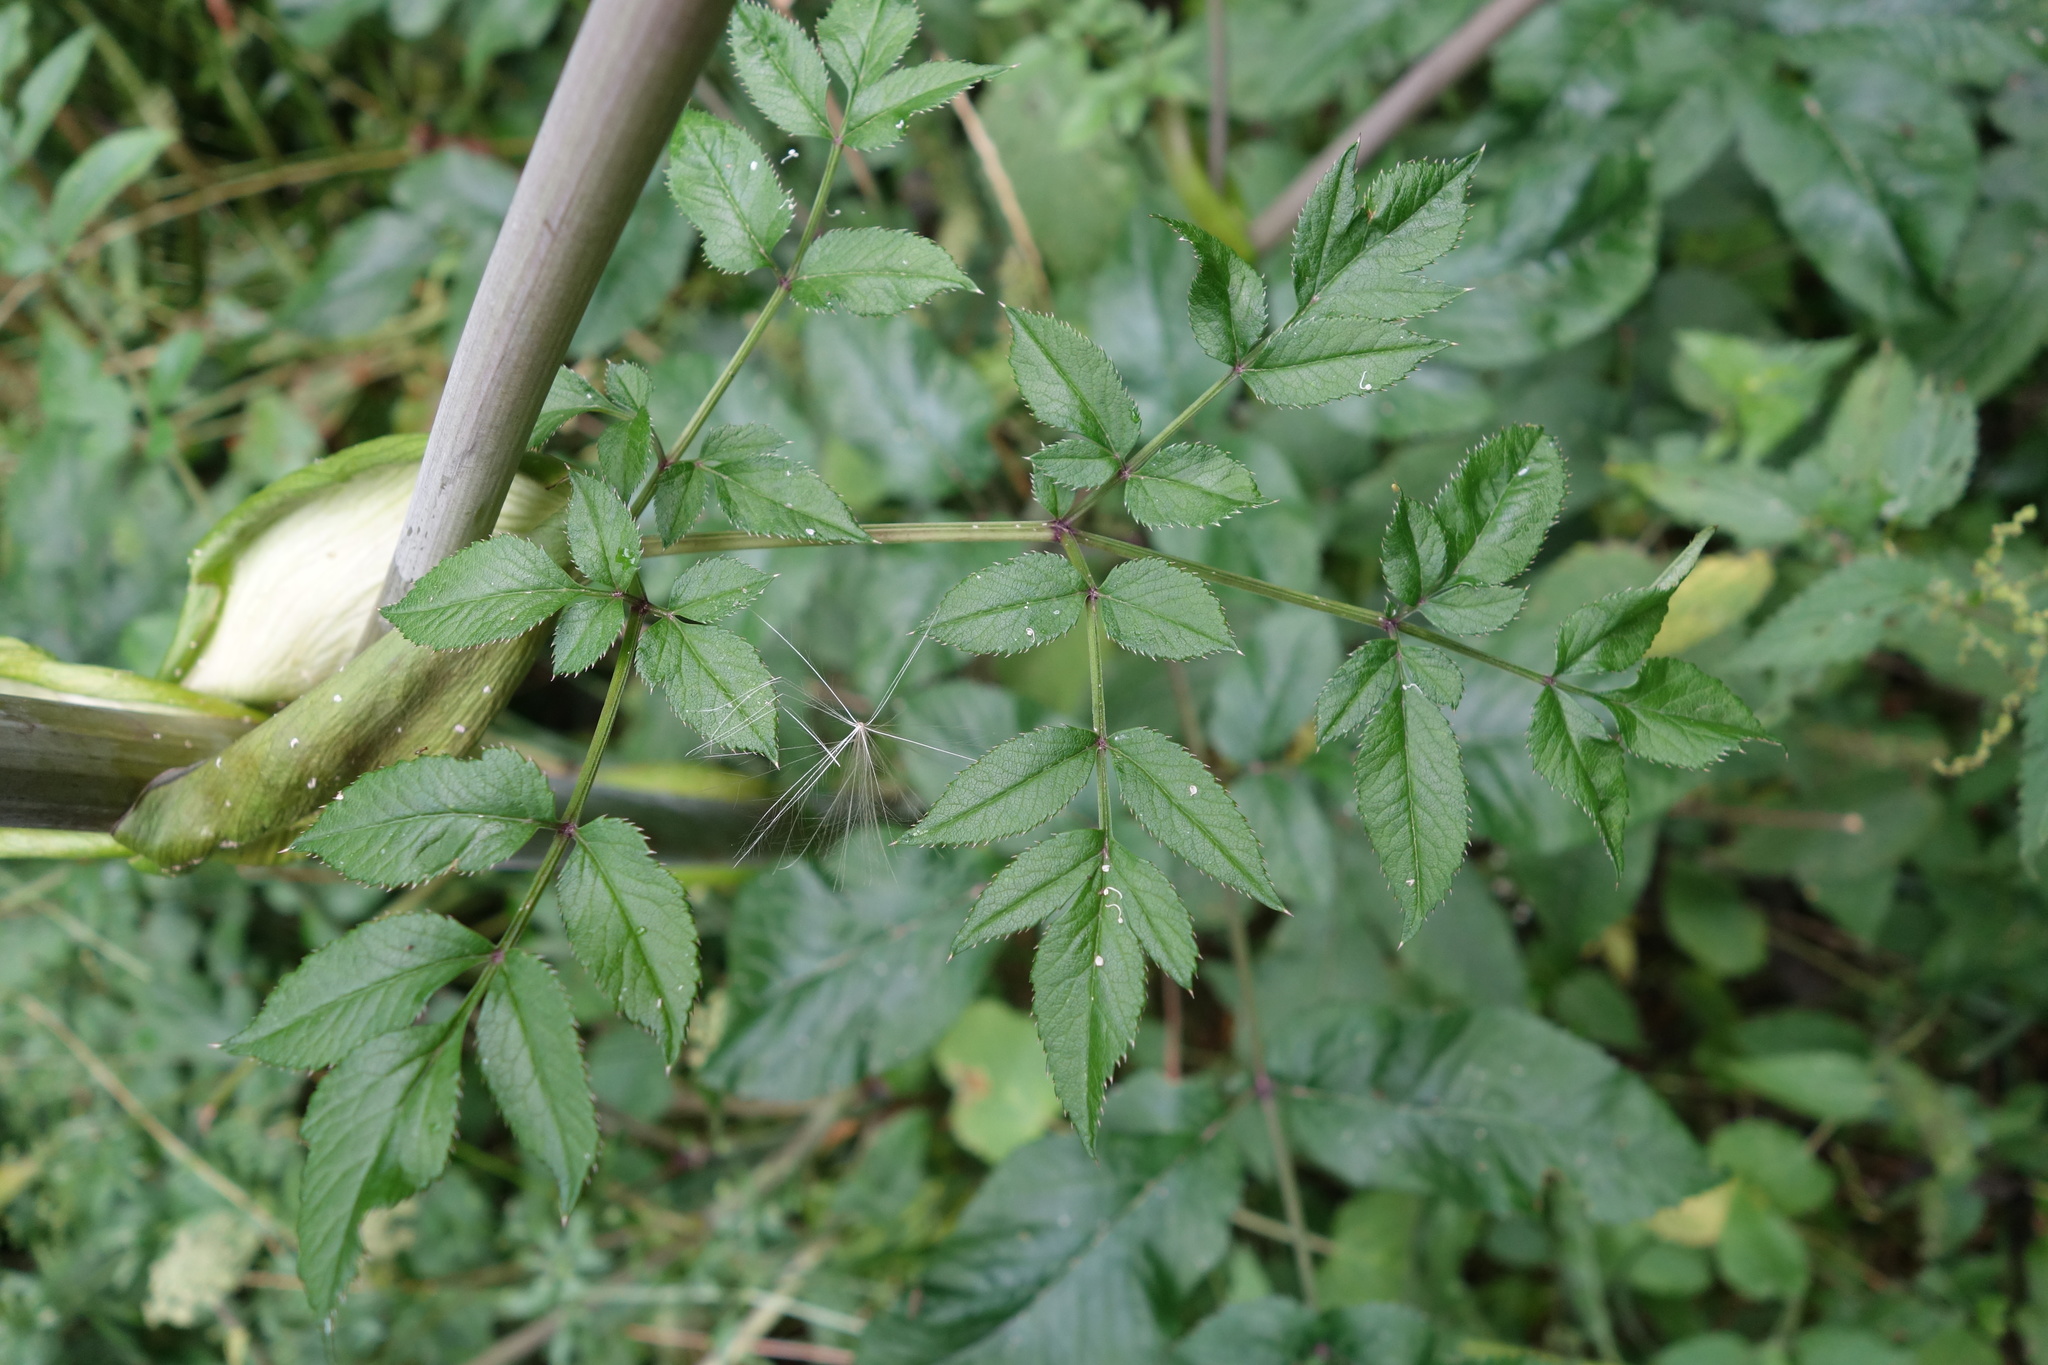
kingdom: Plantae
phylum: Tracheophyta
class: Magnoliopsida
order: Apiales
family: Apiaceae
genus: Angelica
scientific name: Angelica sylvestris
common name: Wild angelica
